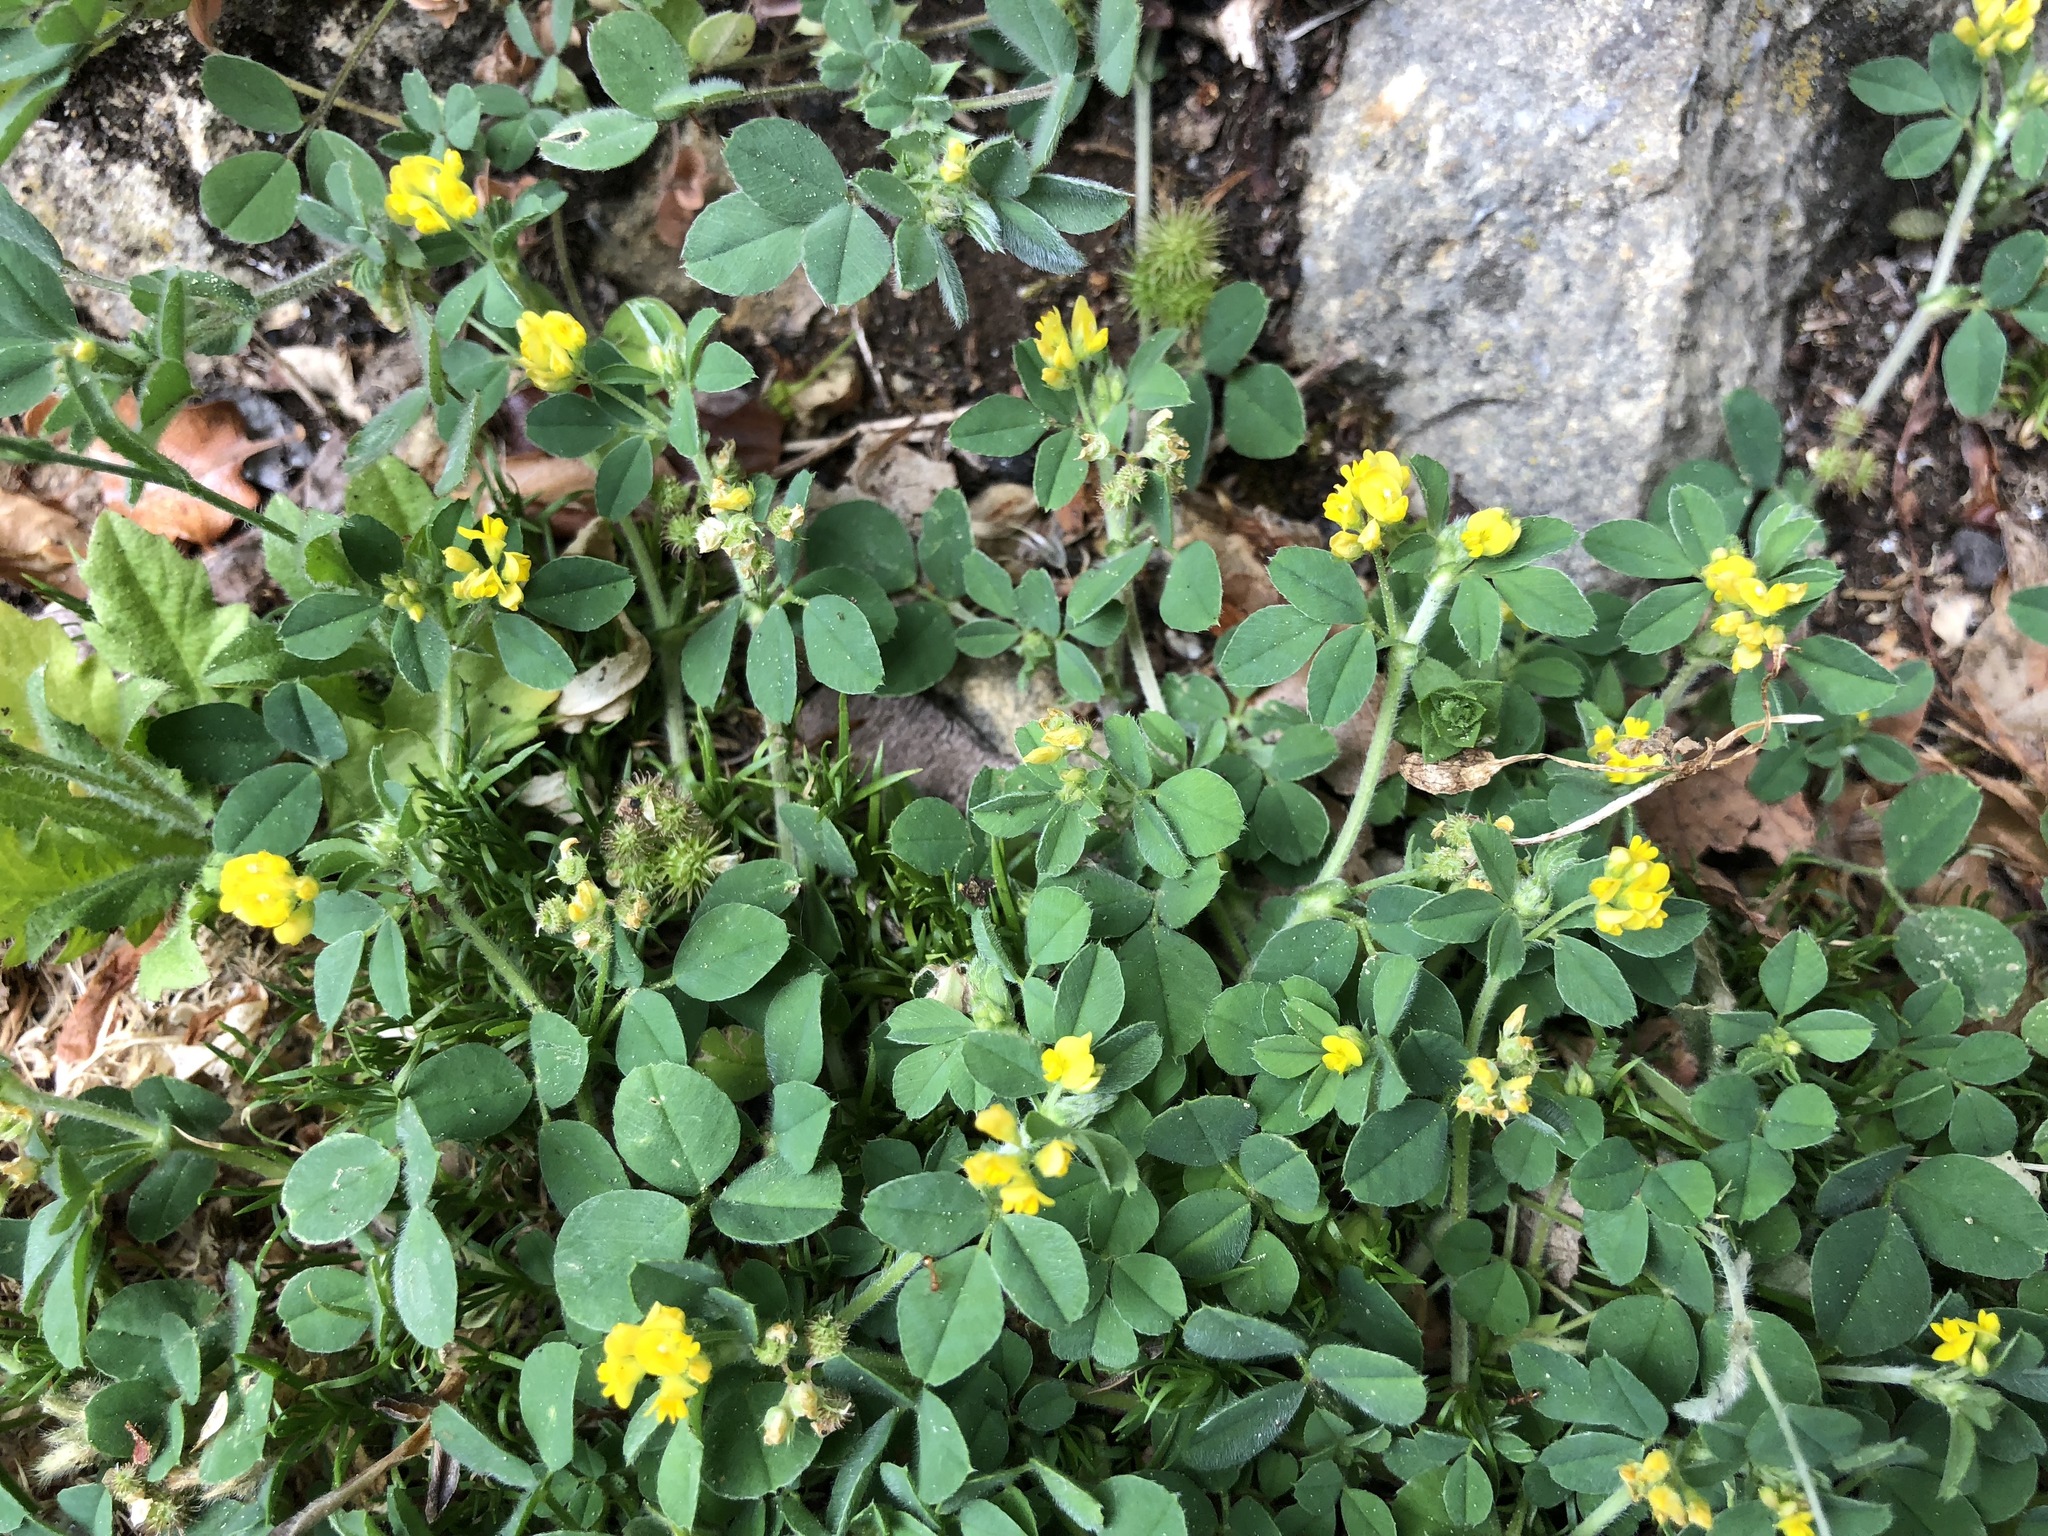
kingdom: Plantae
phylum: Tracheophyta
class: Magnoliopsida
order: Fabales
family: Fabaceae
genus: Medicago
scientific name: Medicago minima
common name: Little bur-clover
